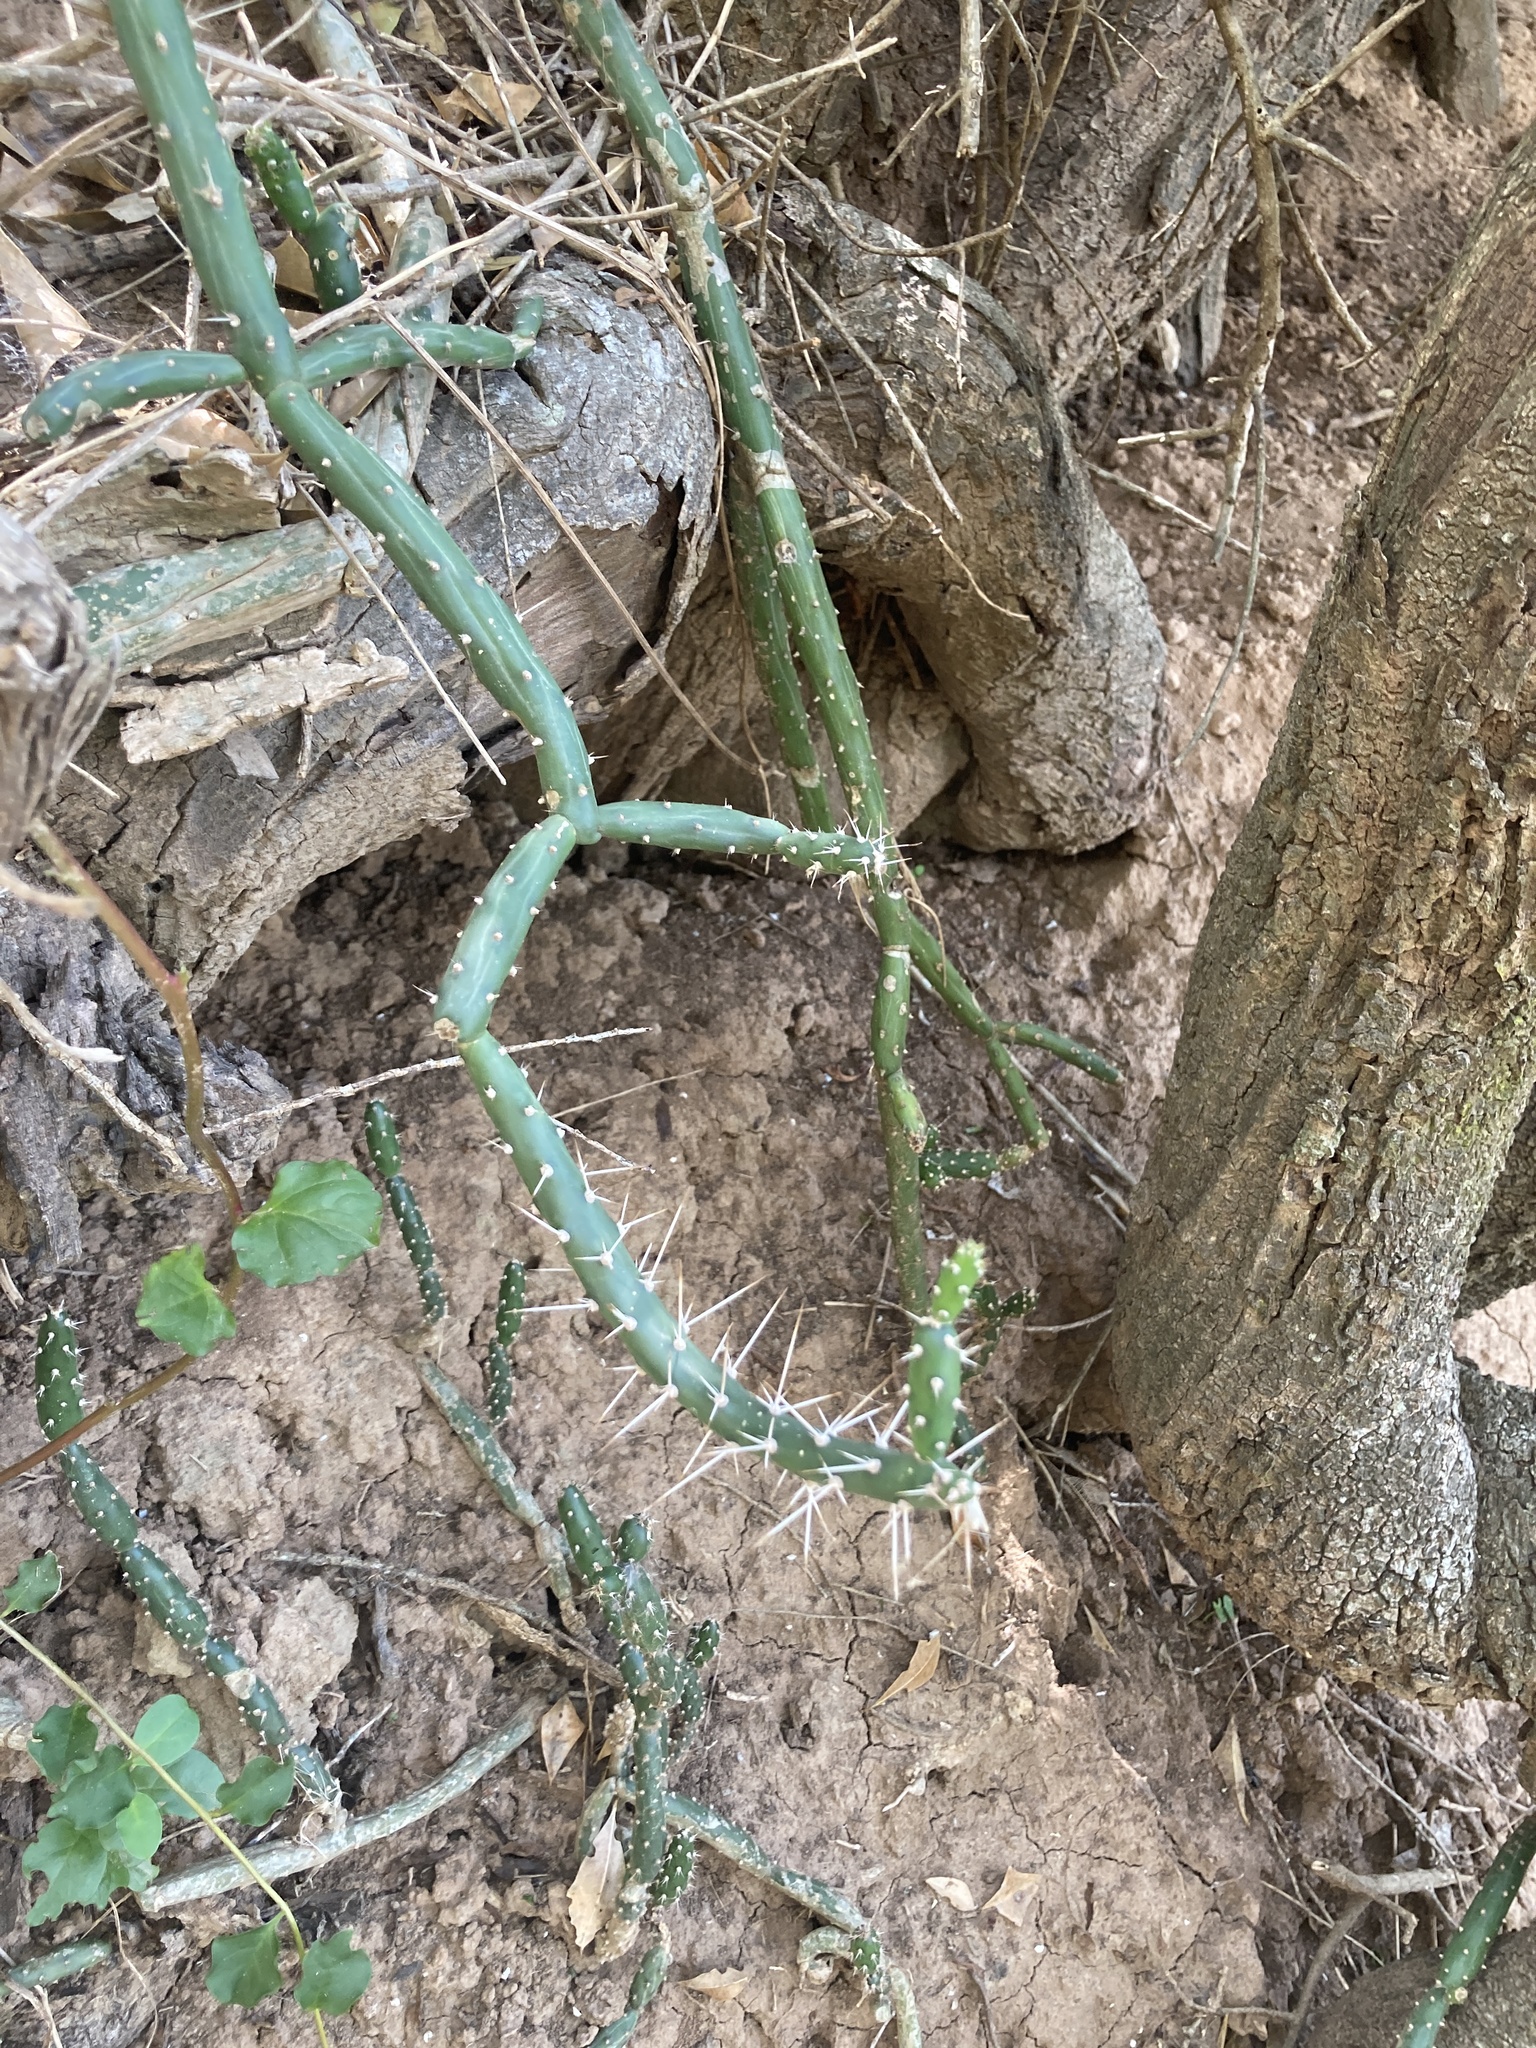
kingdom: Plantae
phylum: Tracheophyta
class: Magnoliopsida
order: Caryophyllales
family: Cactaceae
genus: Salmonopuntia
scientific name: Salmonopuntia salmiana
